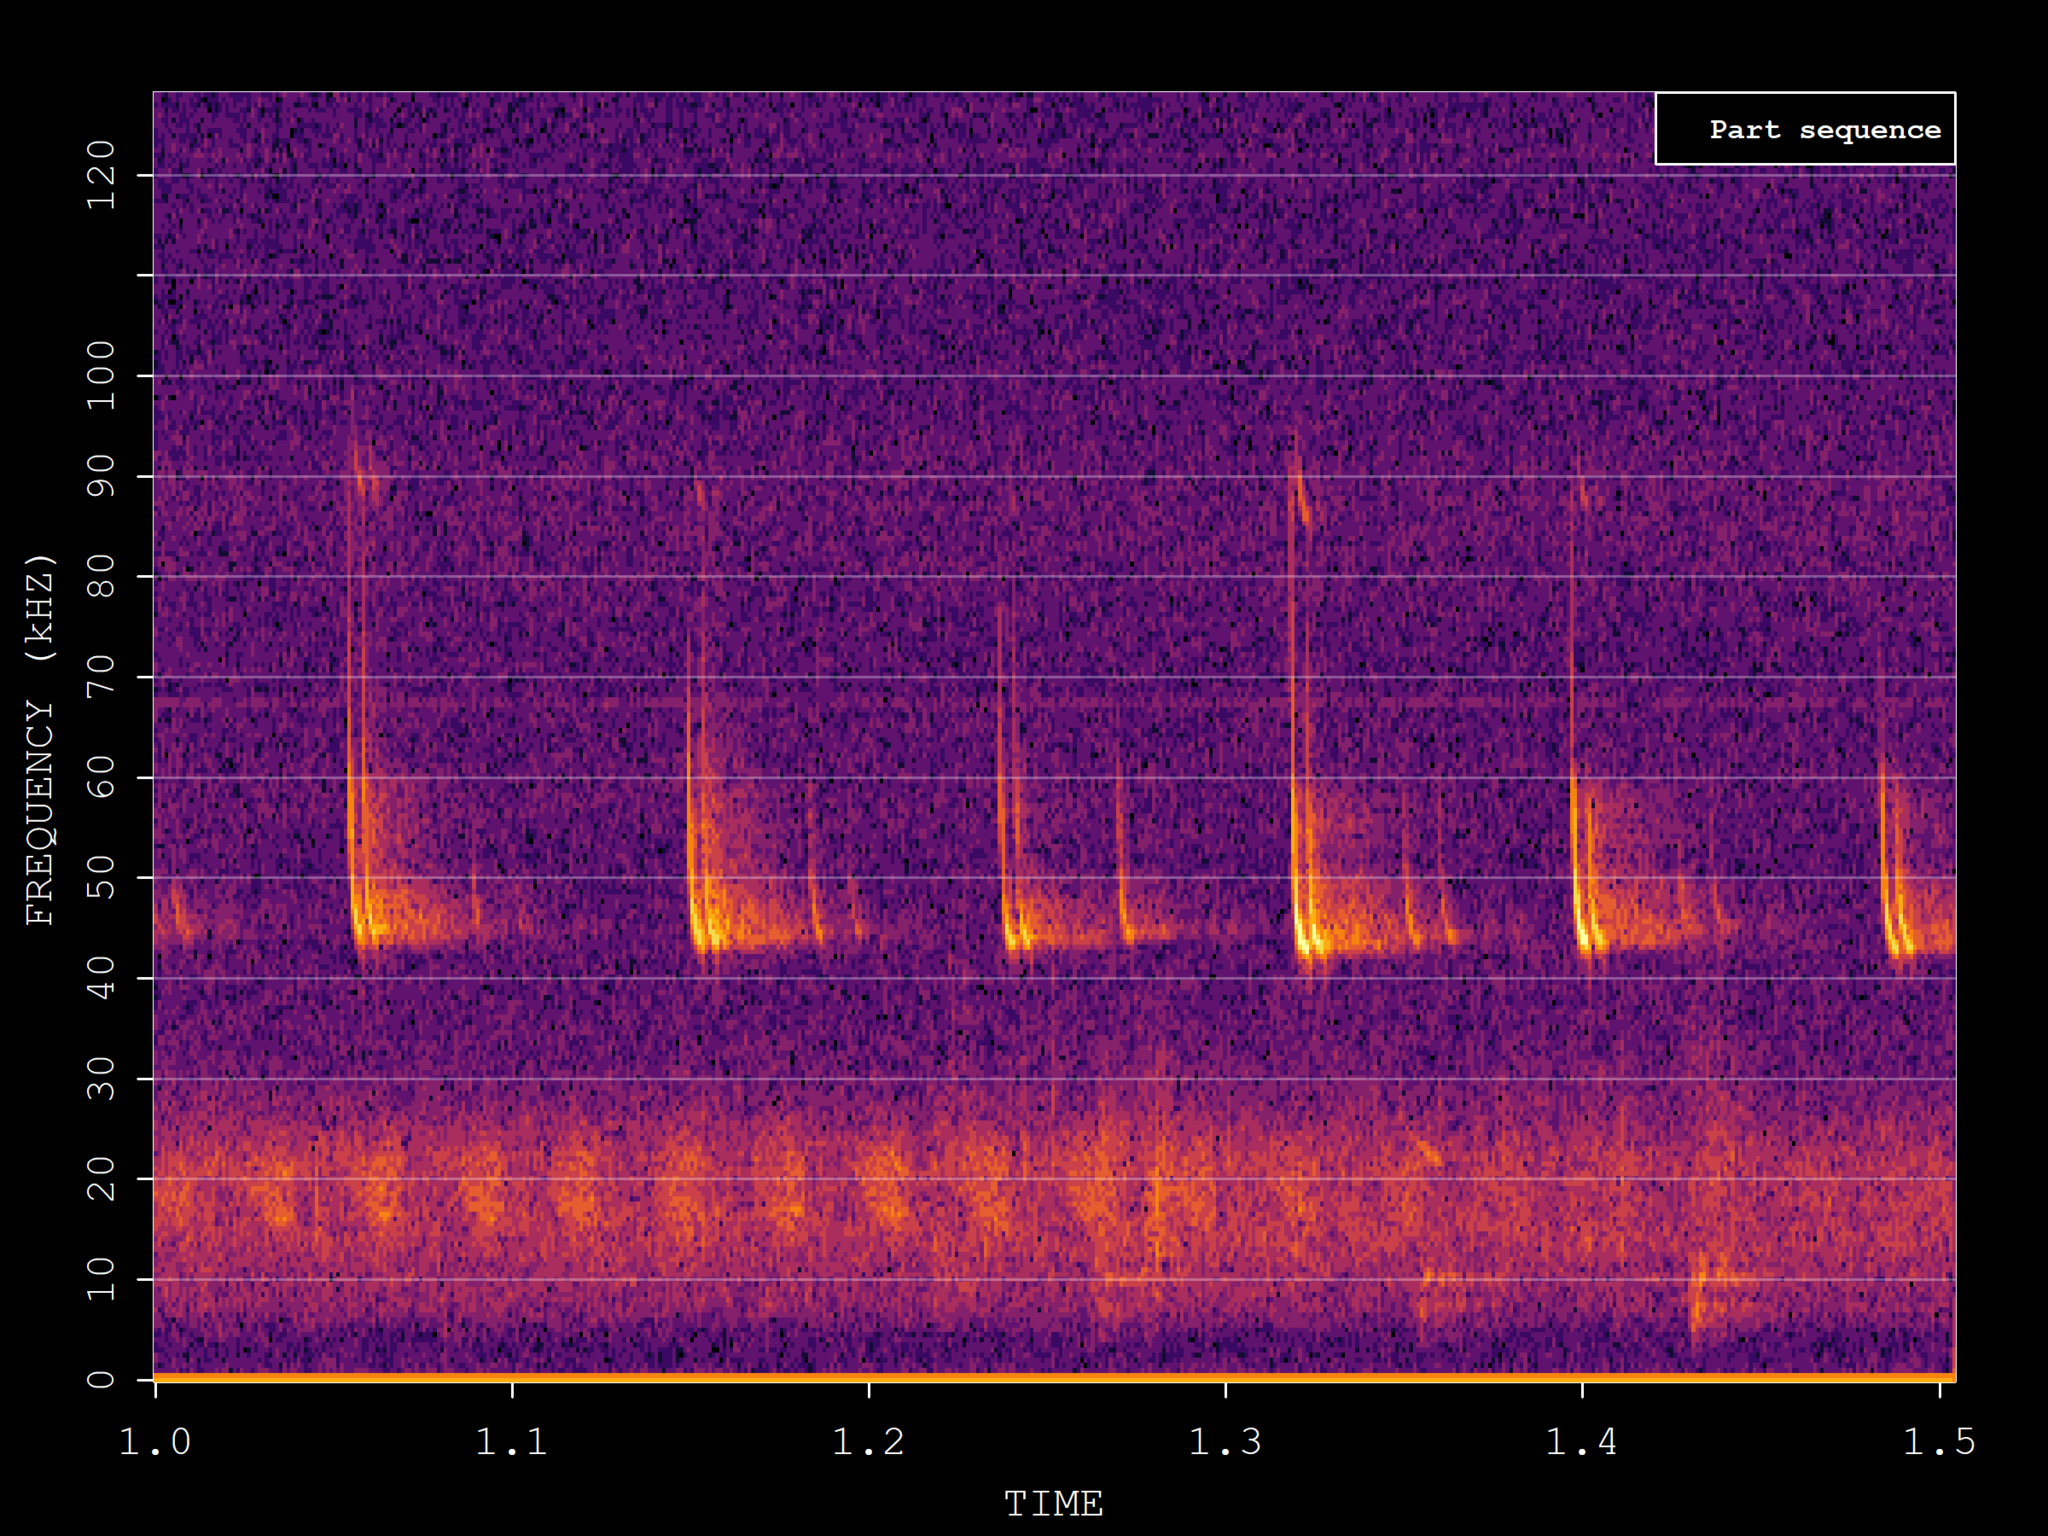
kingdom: Animalia
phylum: Chordata
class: Mammalia
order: Chiroptera
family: Vespertilionidae
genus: Pipistrellus
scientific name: Pipistrellus pipistrellus
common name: Common pipistrelle
